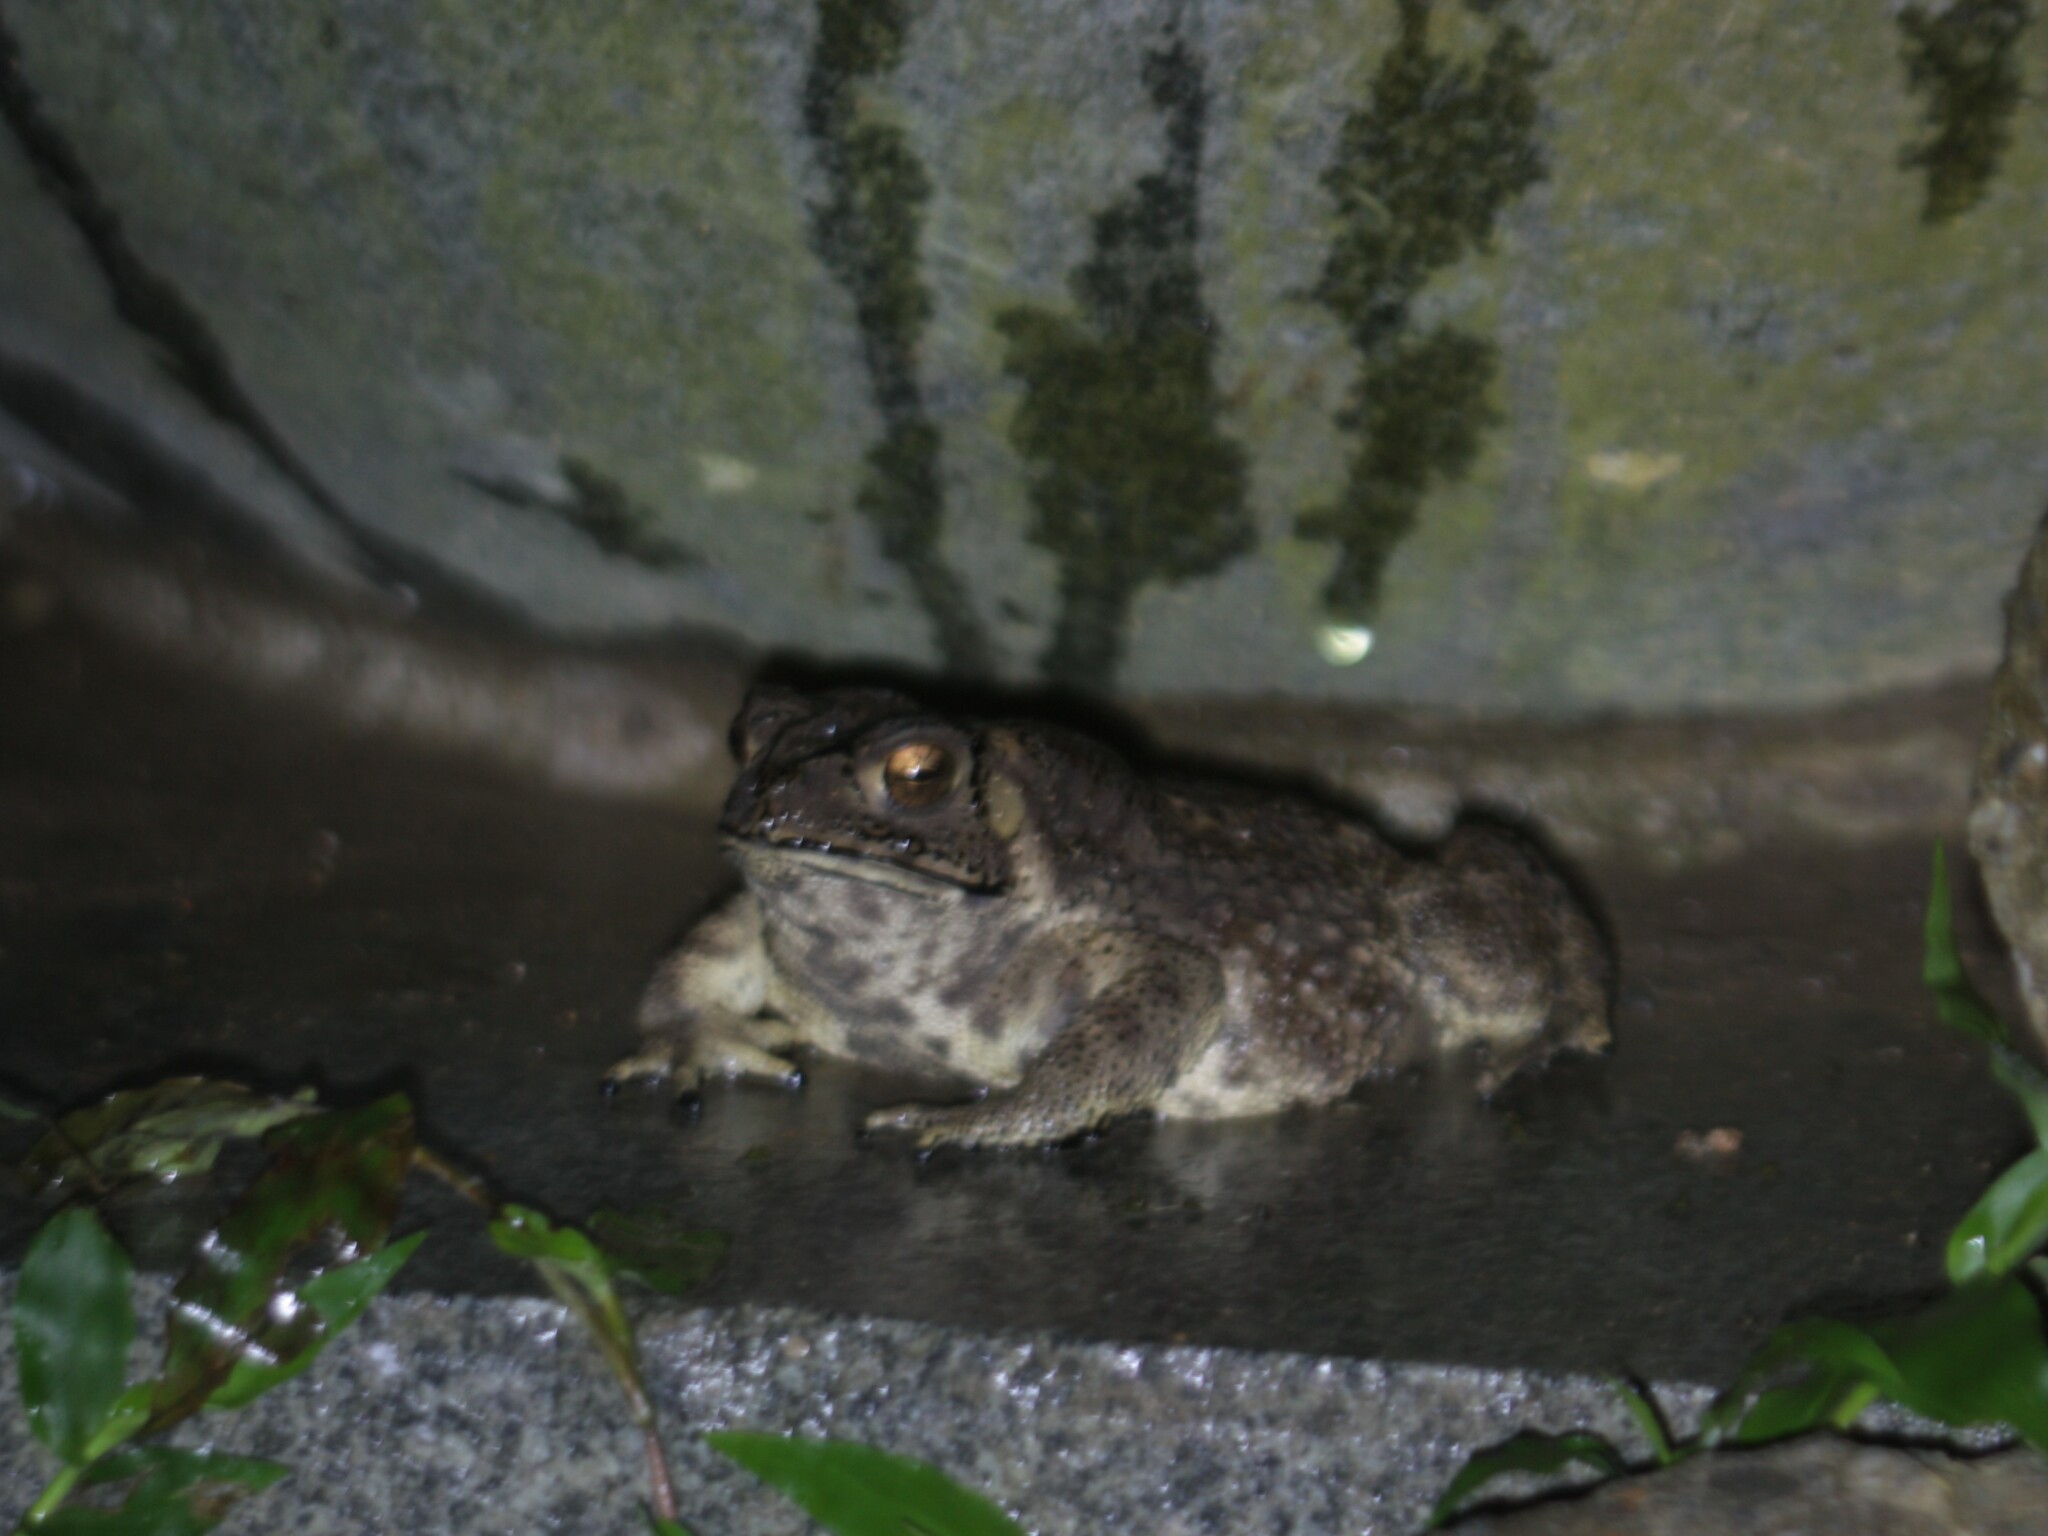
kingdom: Animalia
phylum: Chordata
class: Amphibia
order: Anura
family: Bufonidae
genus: Duttaphrynus
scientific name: Duttaphrynus melanostictus
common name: Common sunda toad
